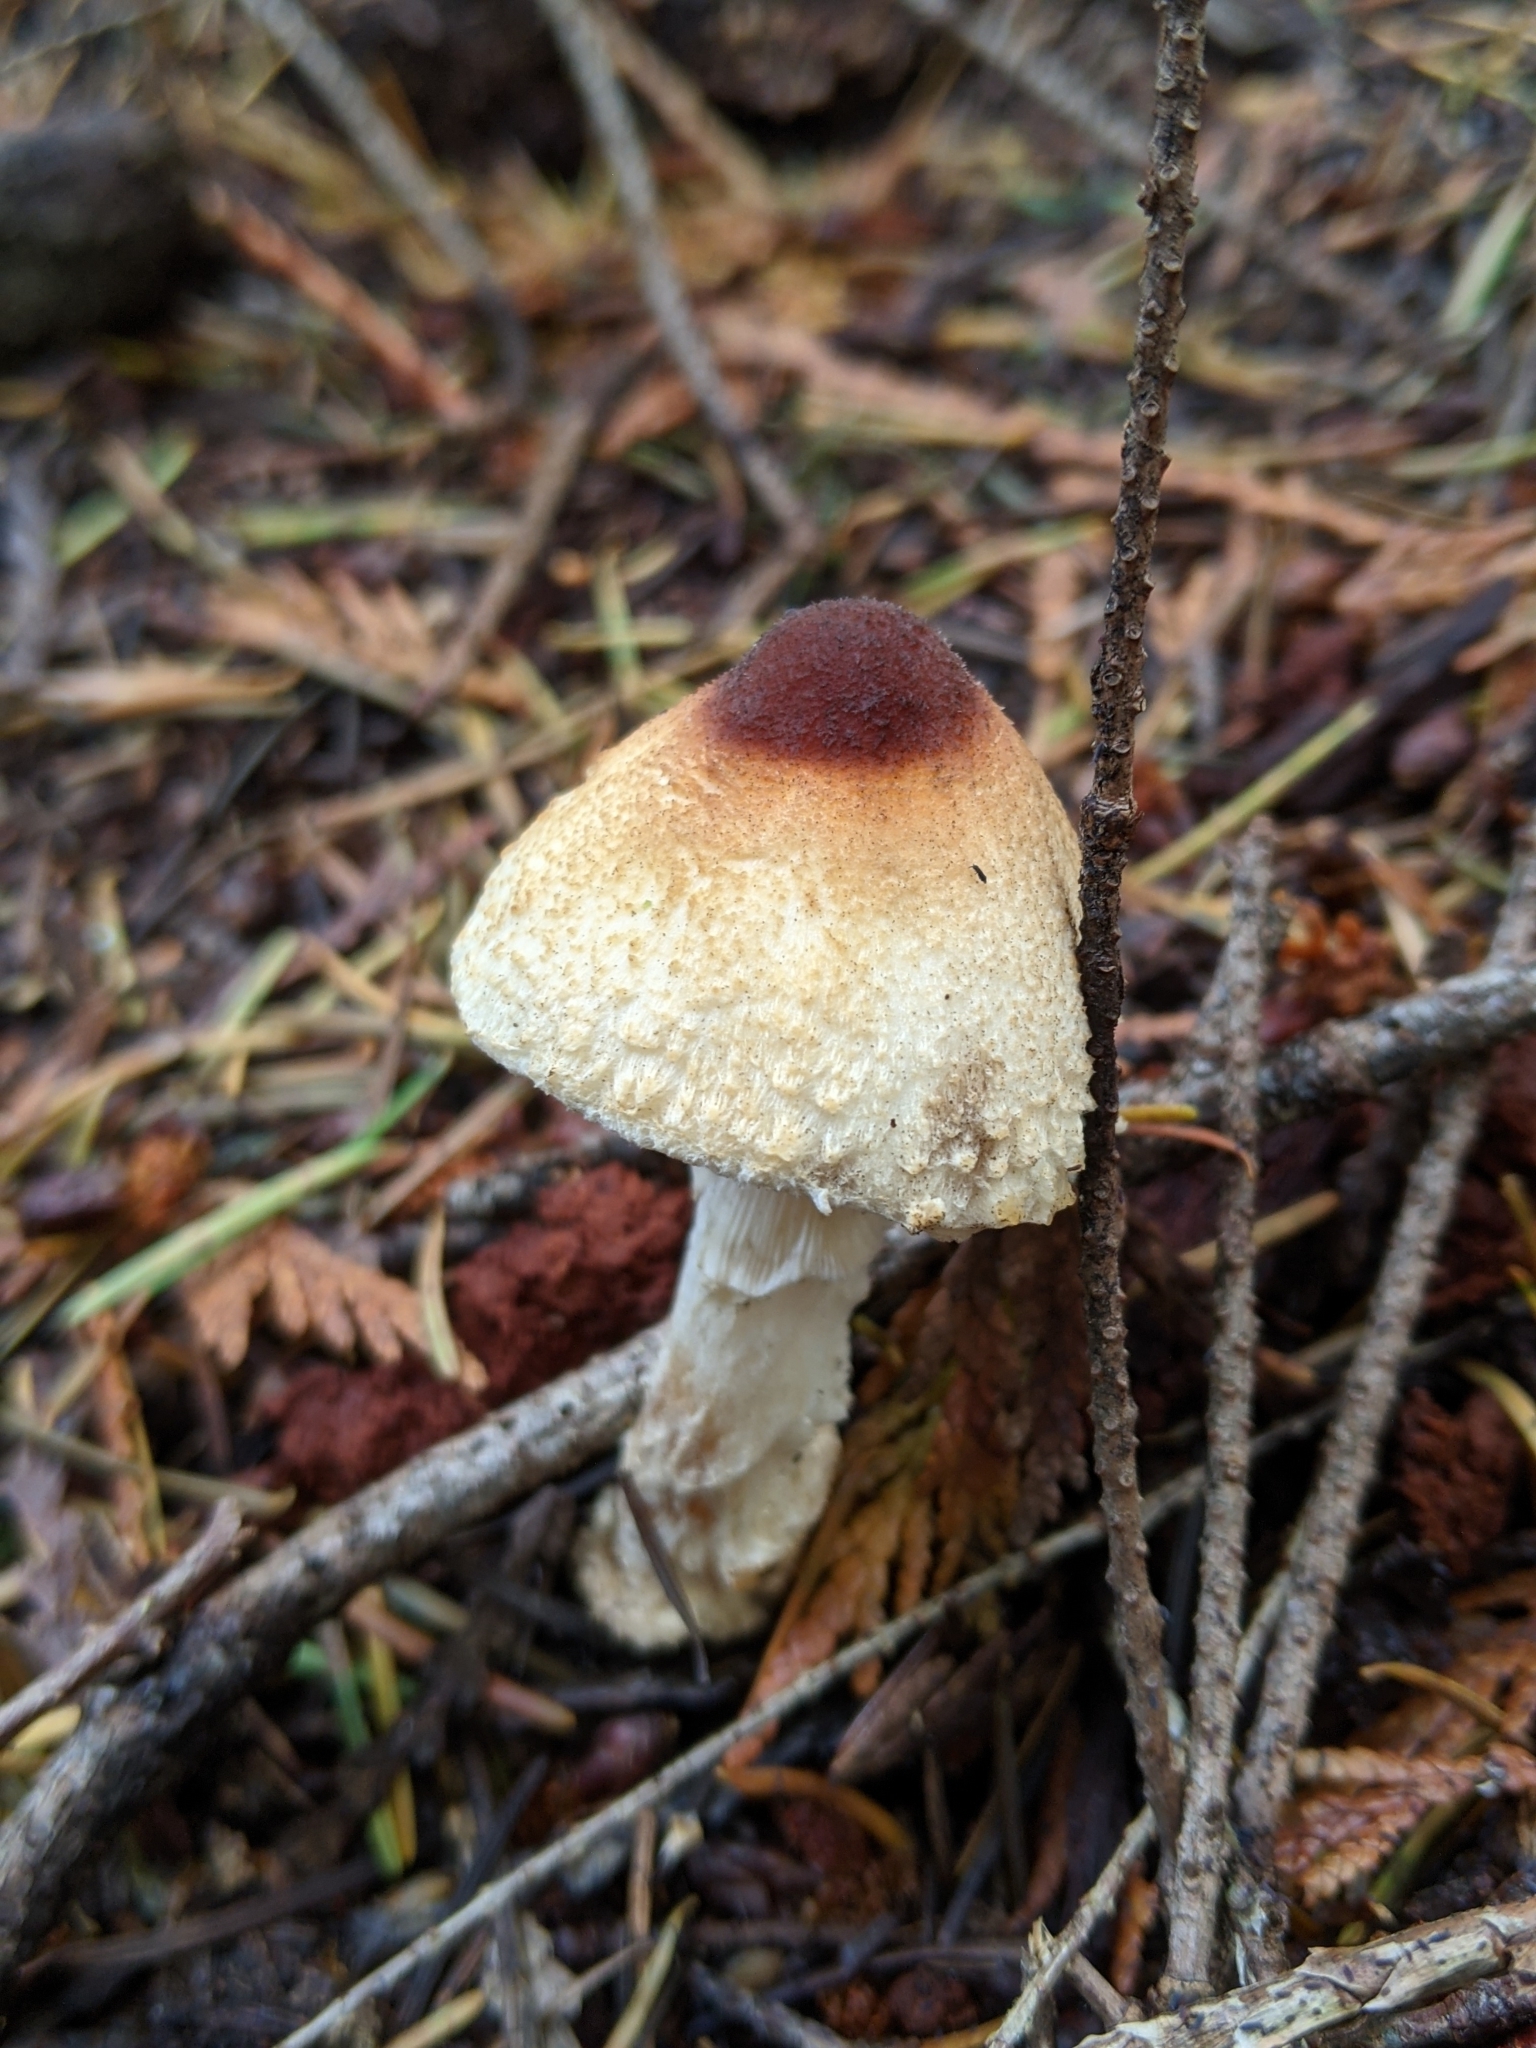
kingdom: Fungi
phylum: Basidiomycota
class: Agaricomycetes
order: Agaricales
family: Agaricaceae
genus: Lepiota
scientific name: Lepiota magnispora
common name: Yellowfoot dapperling
